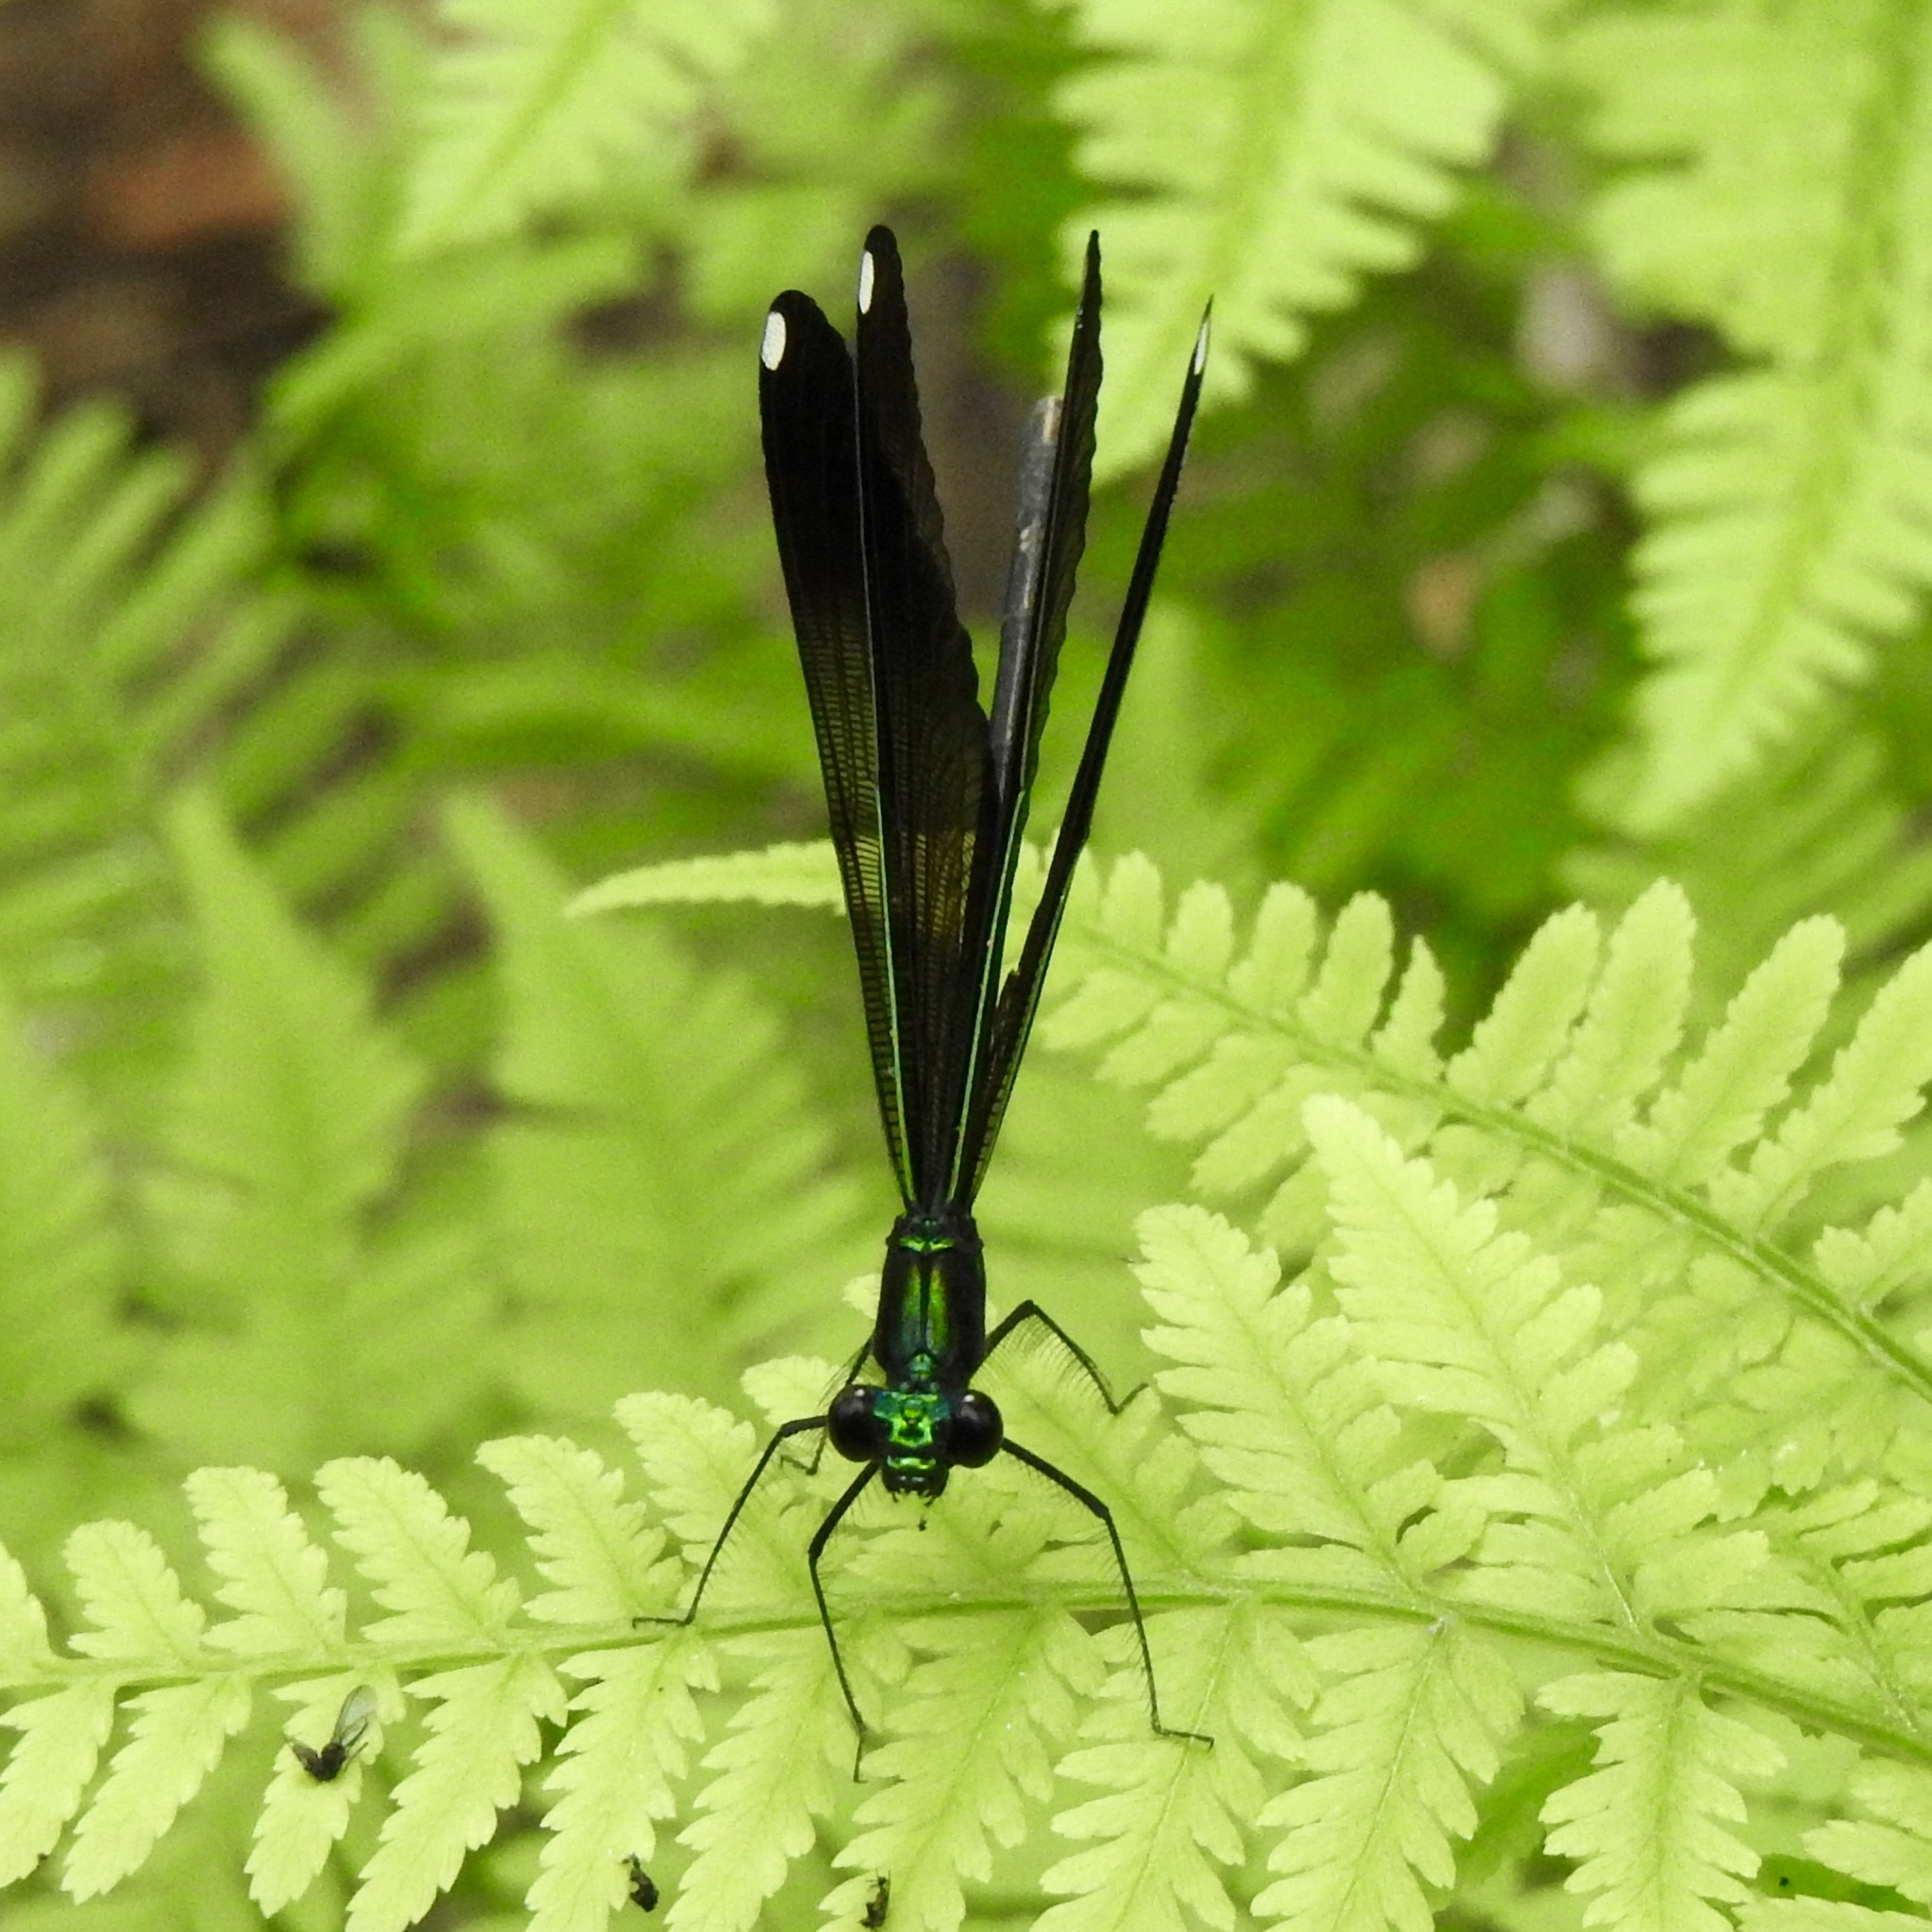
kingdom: Animalia
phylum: Arthropoda
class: Insecta
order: Odonata
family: Calopterygidae
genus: Calopteryx
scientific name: Calopteryx maculata
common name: Ebony jewelwing
